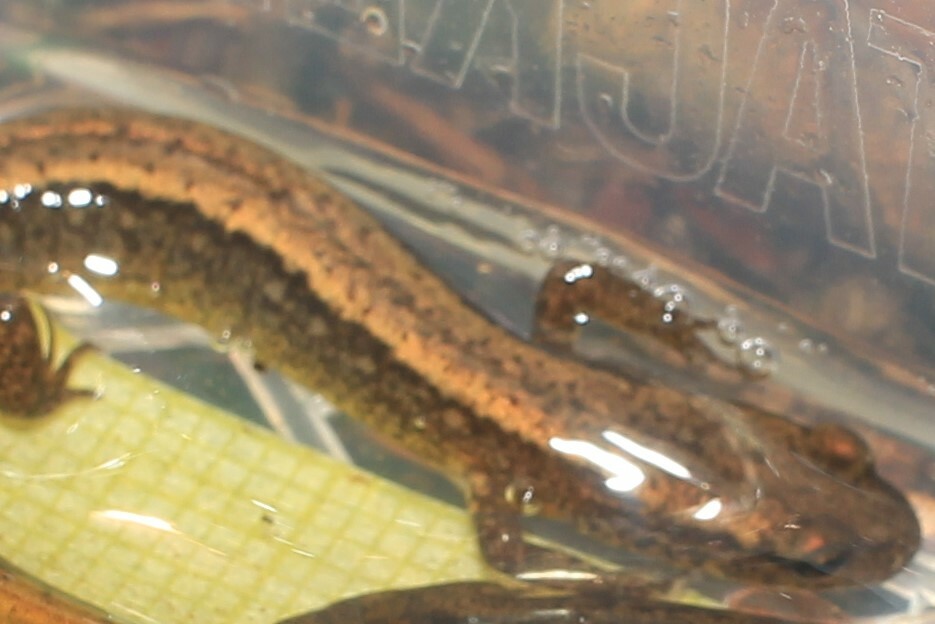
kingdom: Animalia
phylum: Chordata
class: Amphibia
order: Caudata
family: Plethodontidae
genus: Eurycea
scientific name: Eurycea bislineata
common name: Northern two-lined salamander
